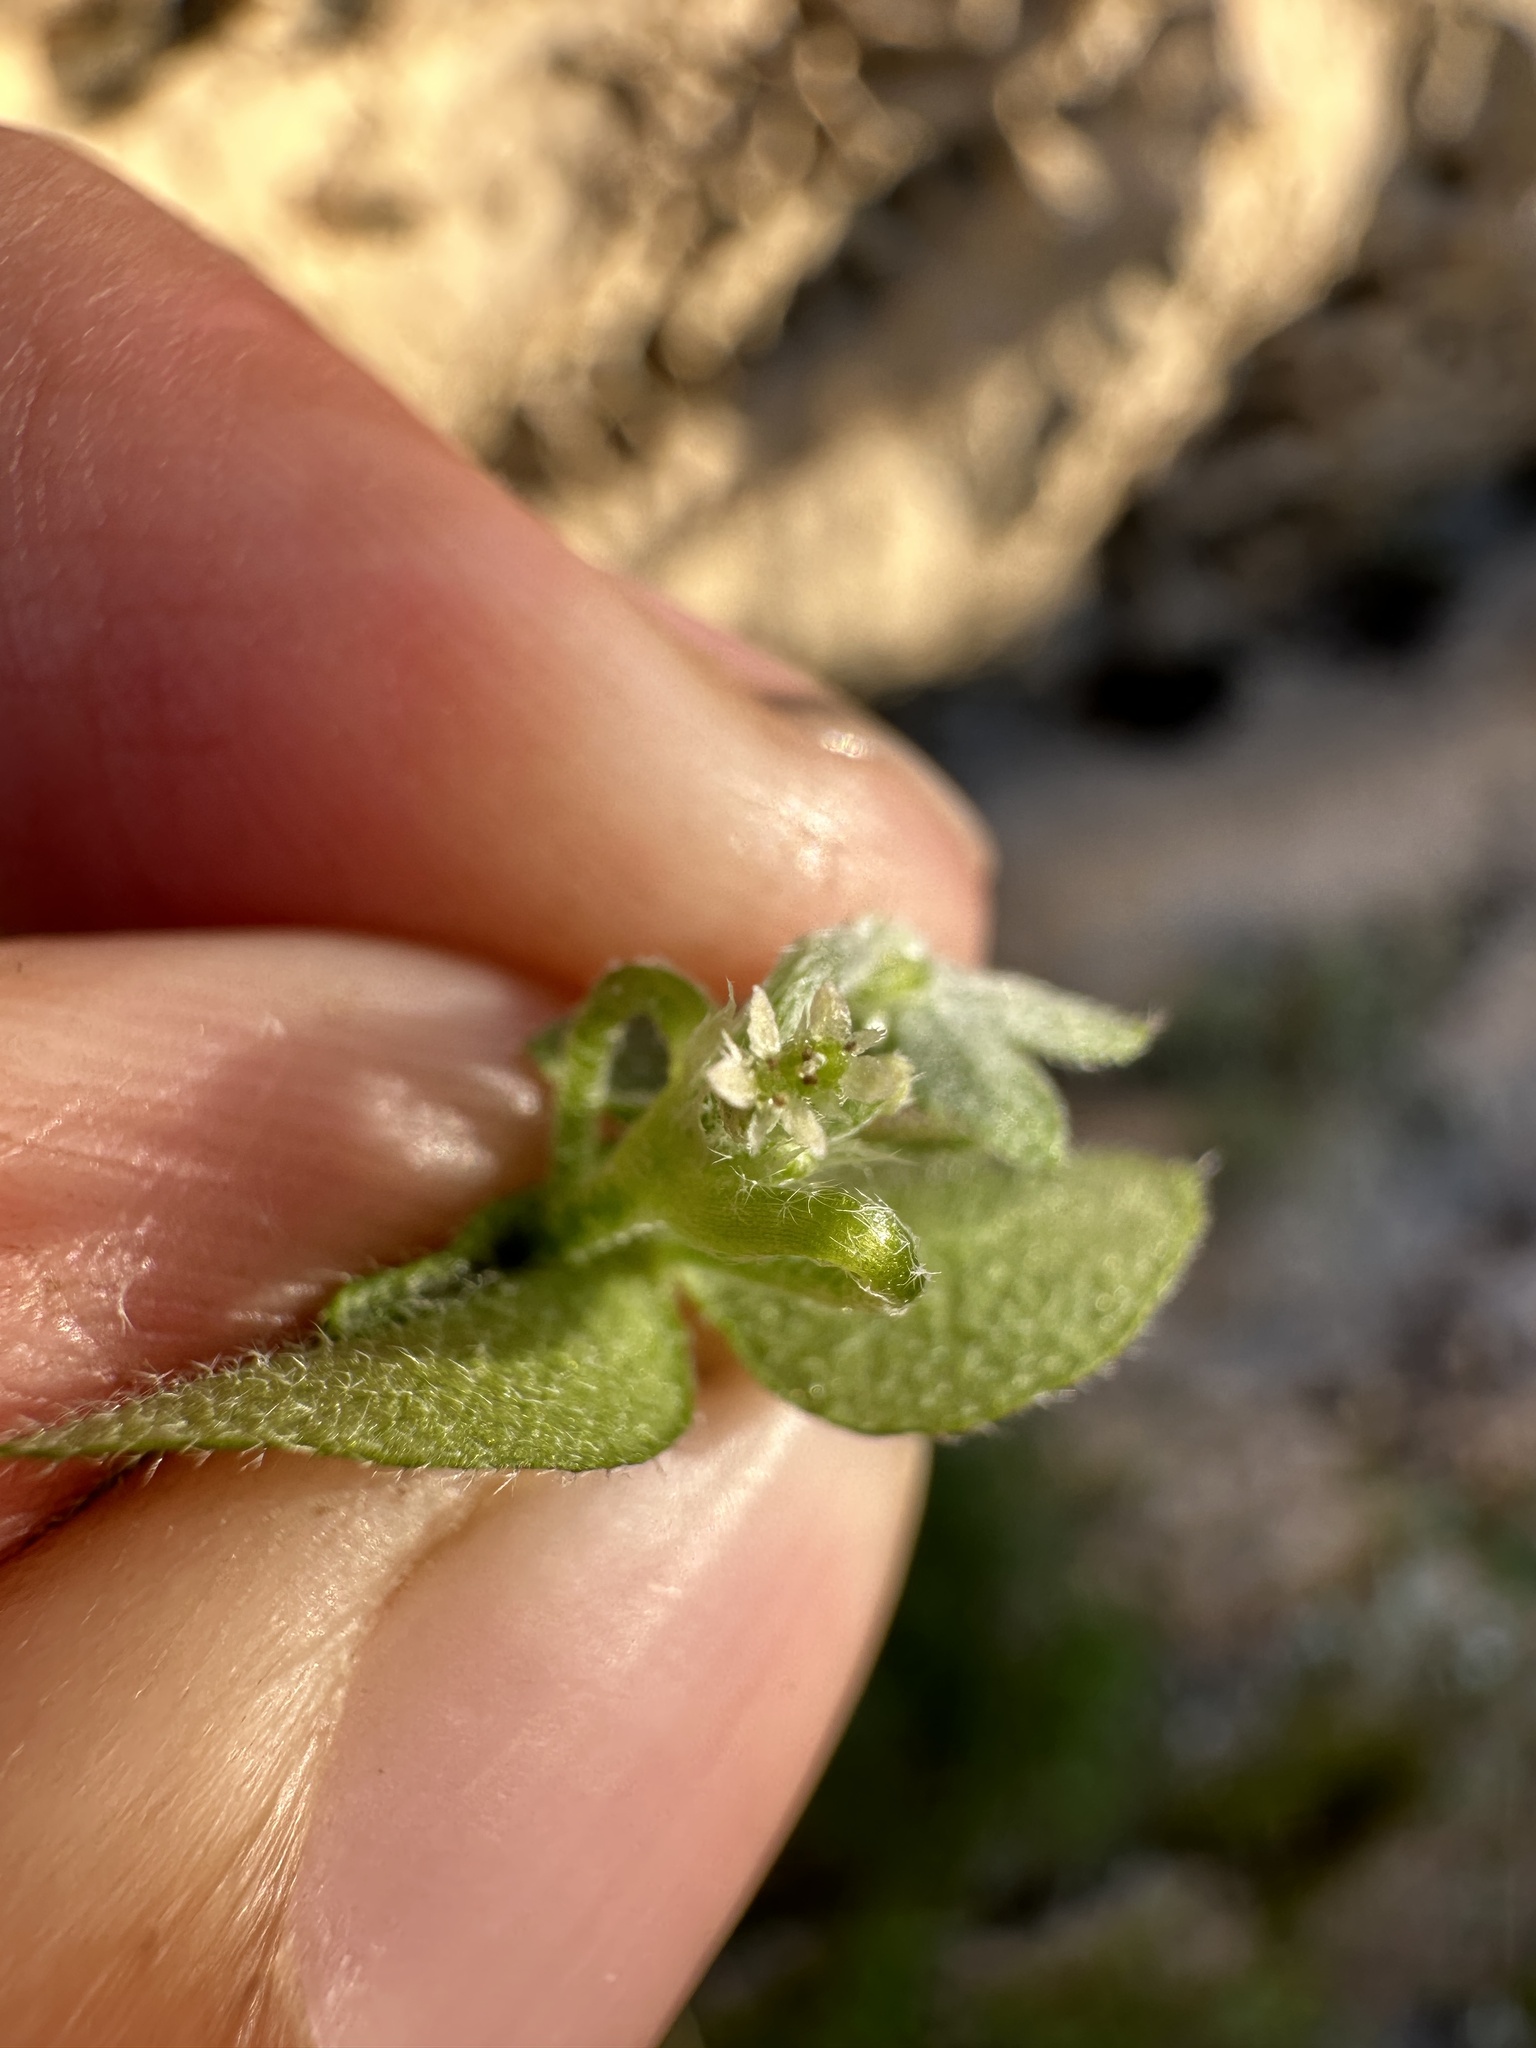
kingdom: Plantae
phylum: Tracheophyta
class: Magnoliopsida
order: Apiales
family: Apiaceae
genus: Bowlesia
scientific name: Bowlesia incana
